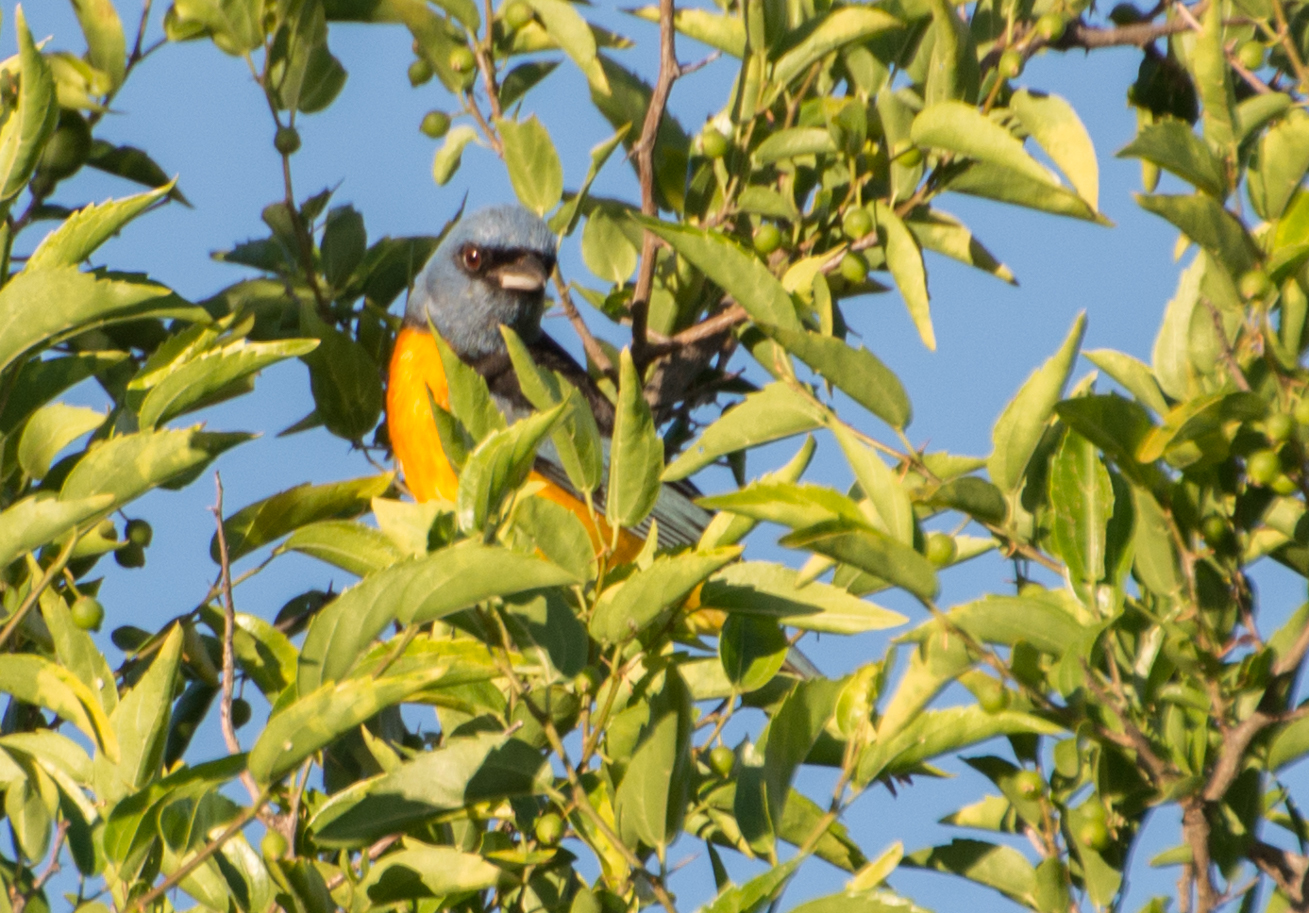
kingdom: Animalia
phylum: Chordata
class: Aves
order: Passeriformes
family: Thraupidae
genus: Rauenia
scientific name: Rauenia bonariensis
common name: Blue-and-yellow tanager
